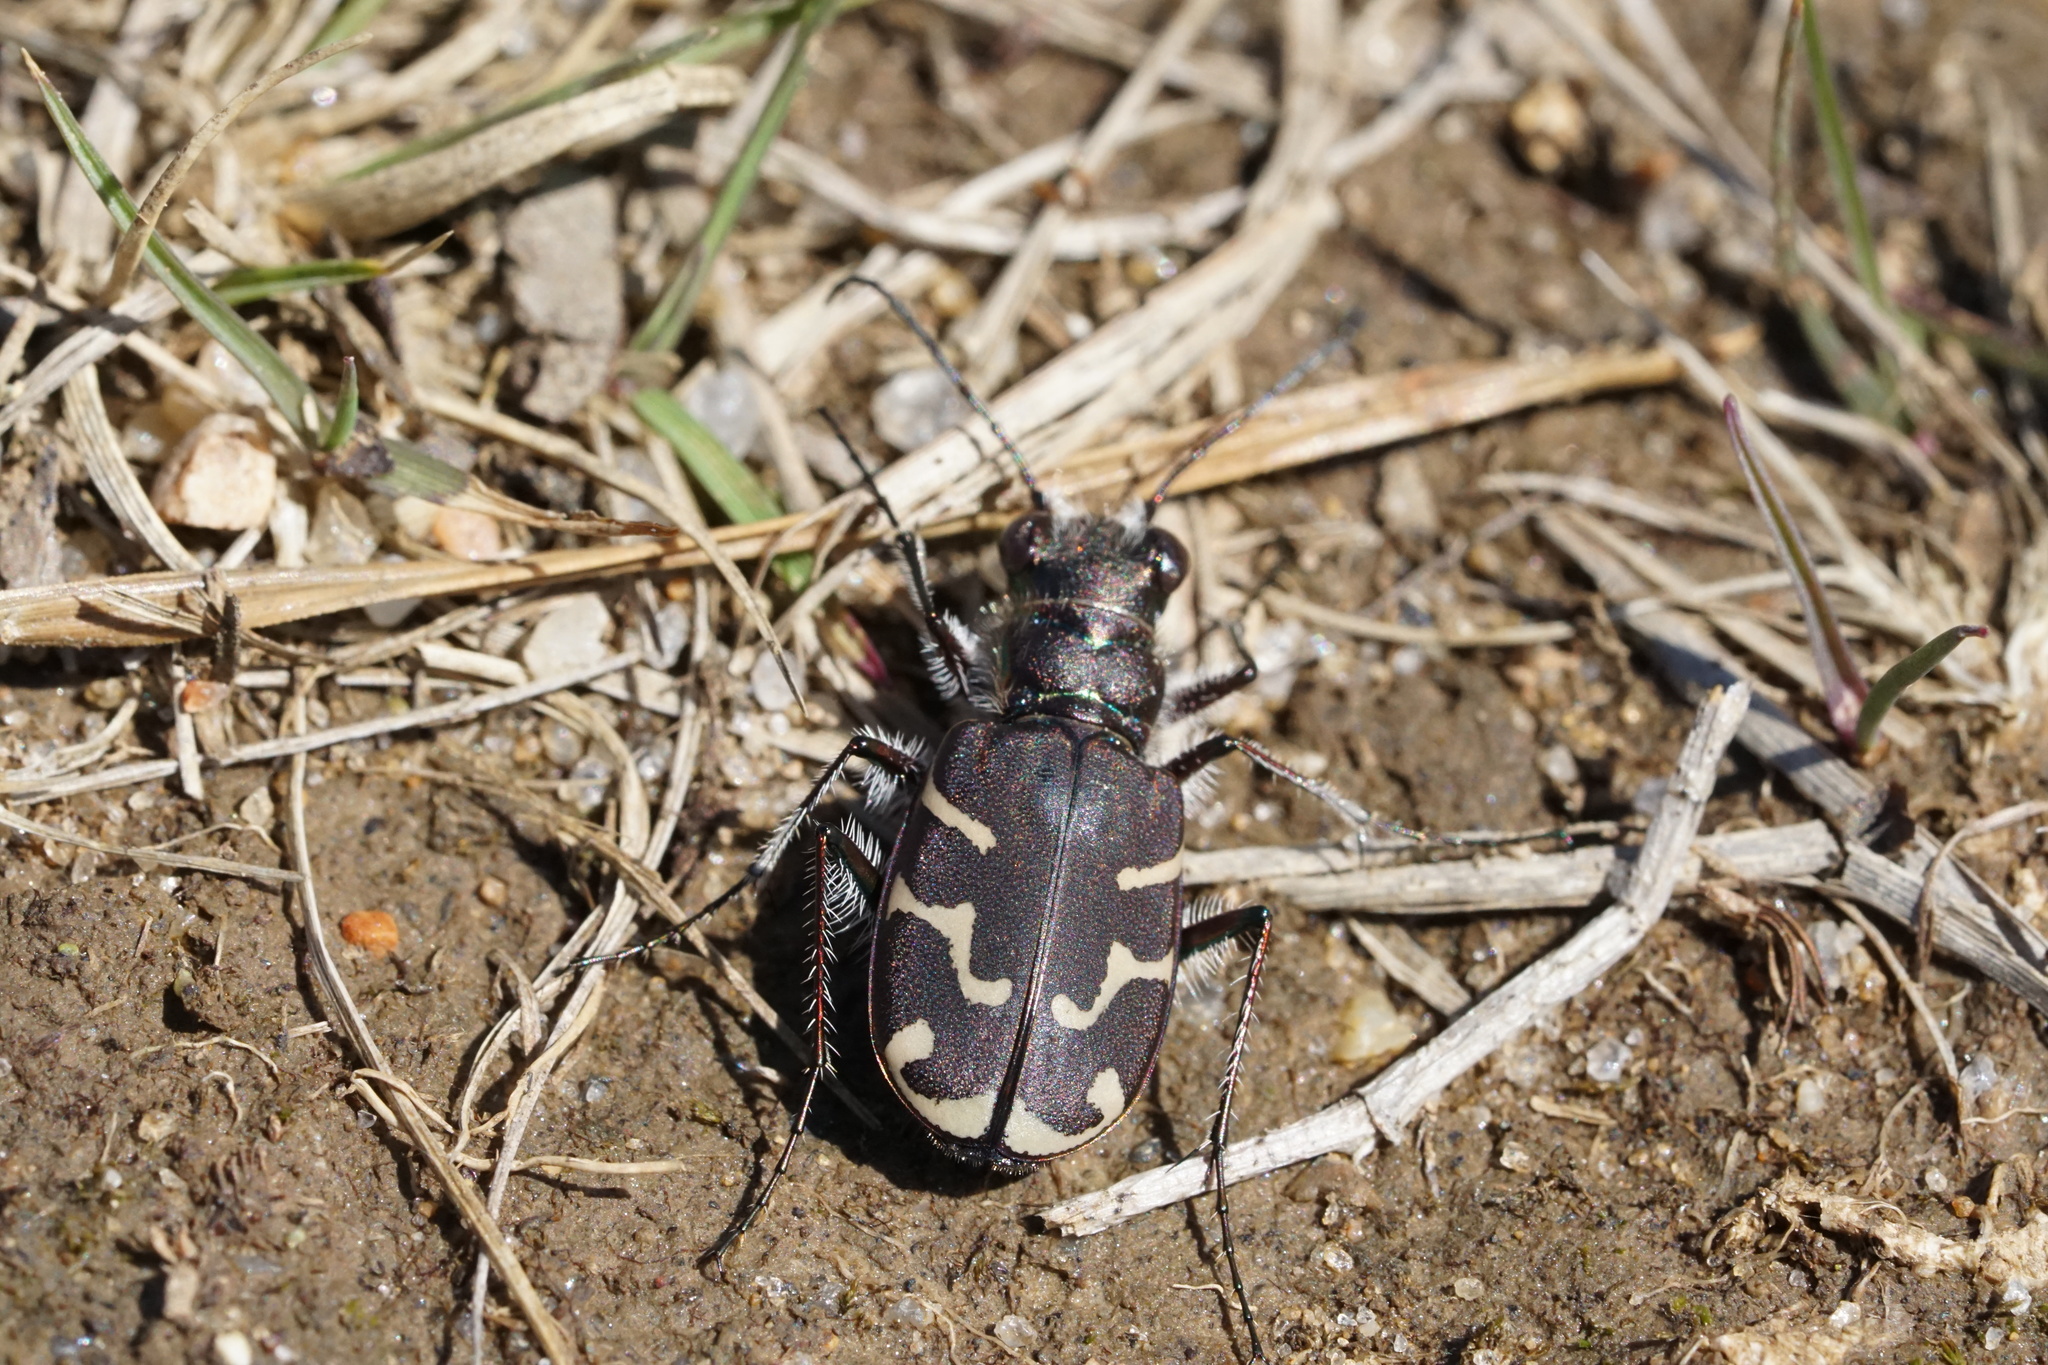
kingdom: Animalia
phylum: Arthropoda
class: Insecta
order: Coleoptera
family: Carabidae
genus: Cicindela
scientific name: Cicindela tranquebarica
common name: Oblique-lined tiger beetle
